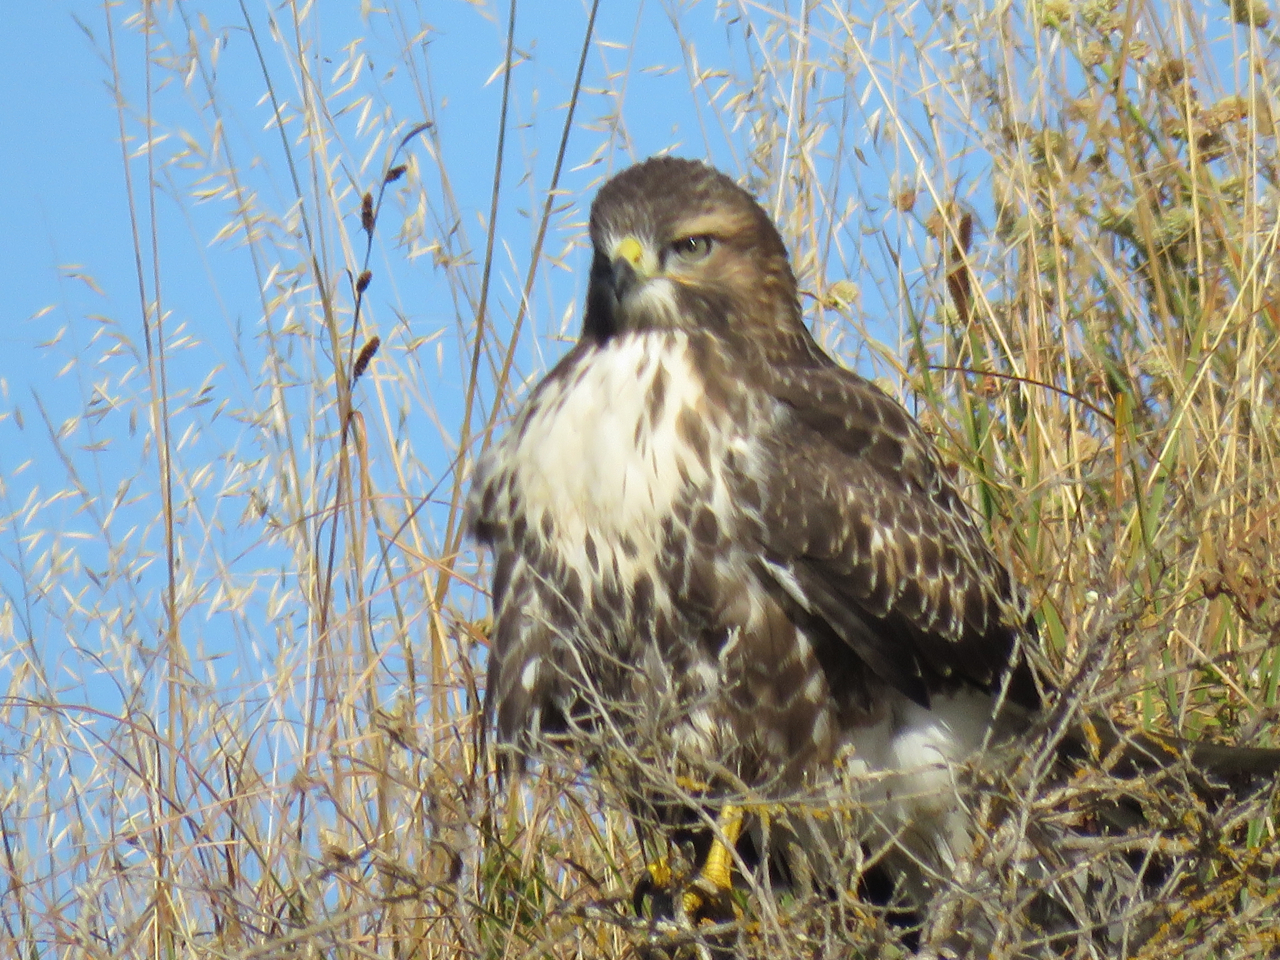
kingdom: Animalia
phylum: Chordata
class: Aves
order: Accipitriformes
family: Accipitridae
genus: Buteo
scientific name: Buteo jamaicensis
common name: Red-tailed hawk
